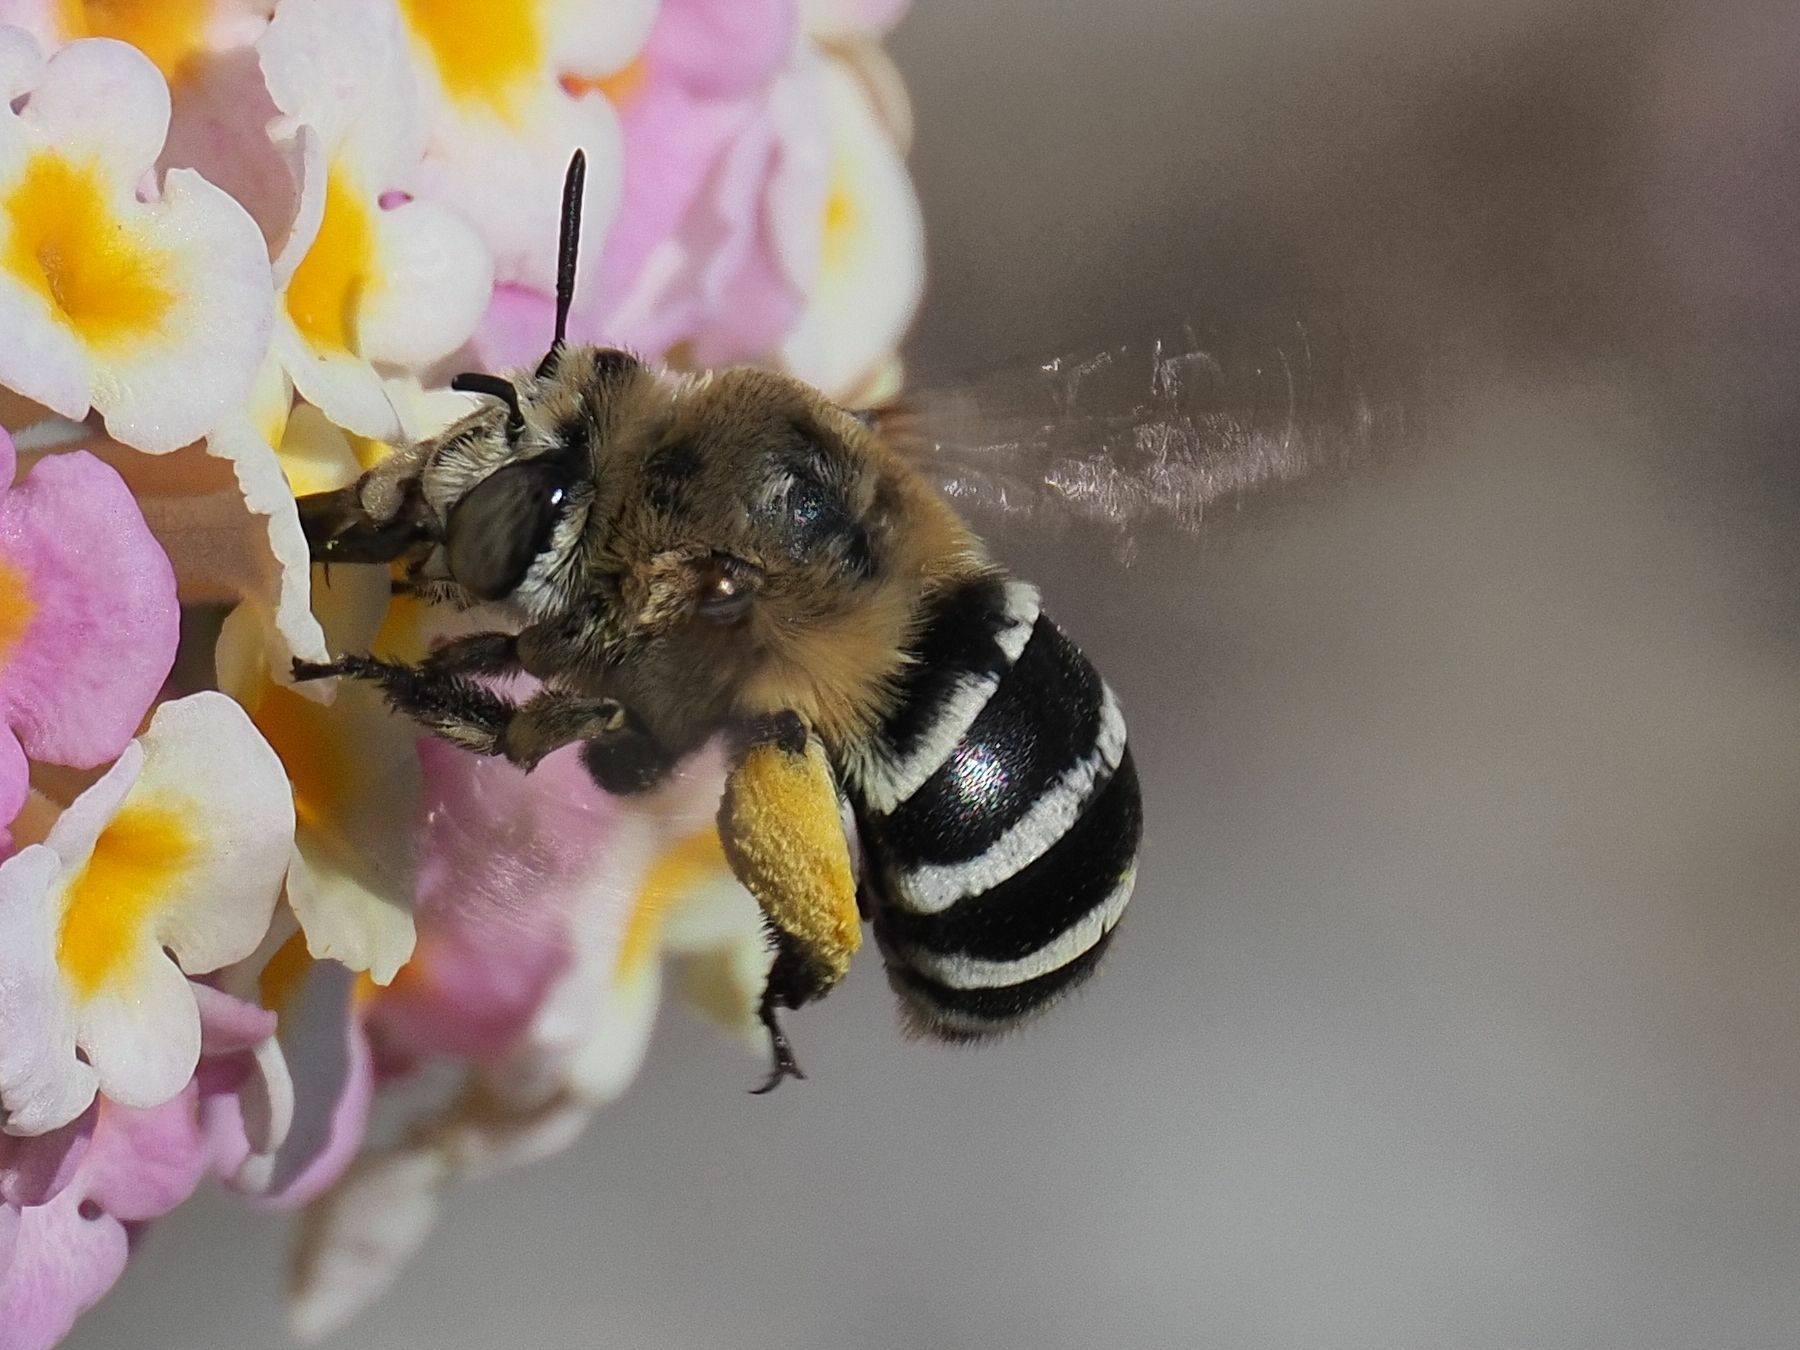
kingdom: Animalia
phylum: Arthropoda
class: Insecta
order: Hymenoptera
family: Apidae
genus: Amegilla
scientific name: Amegilla quadrifasciata
